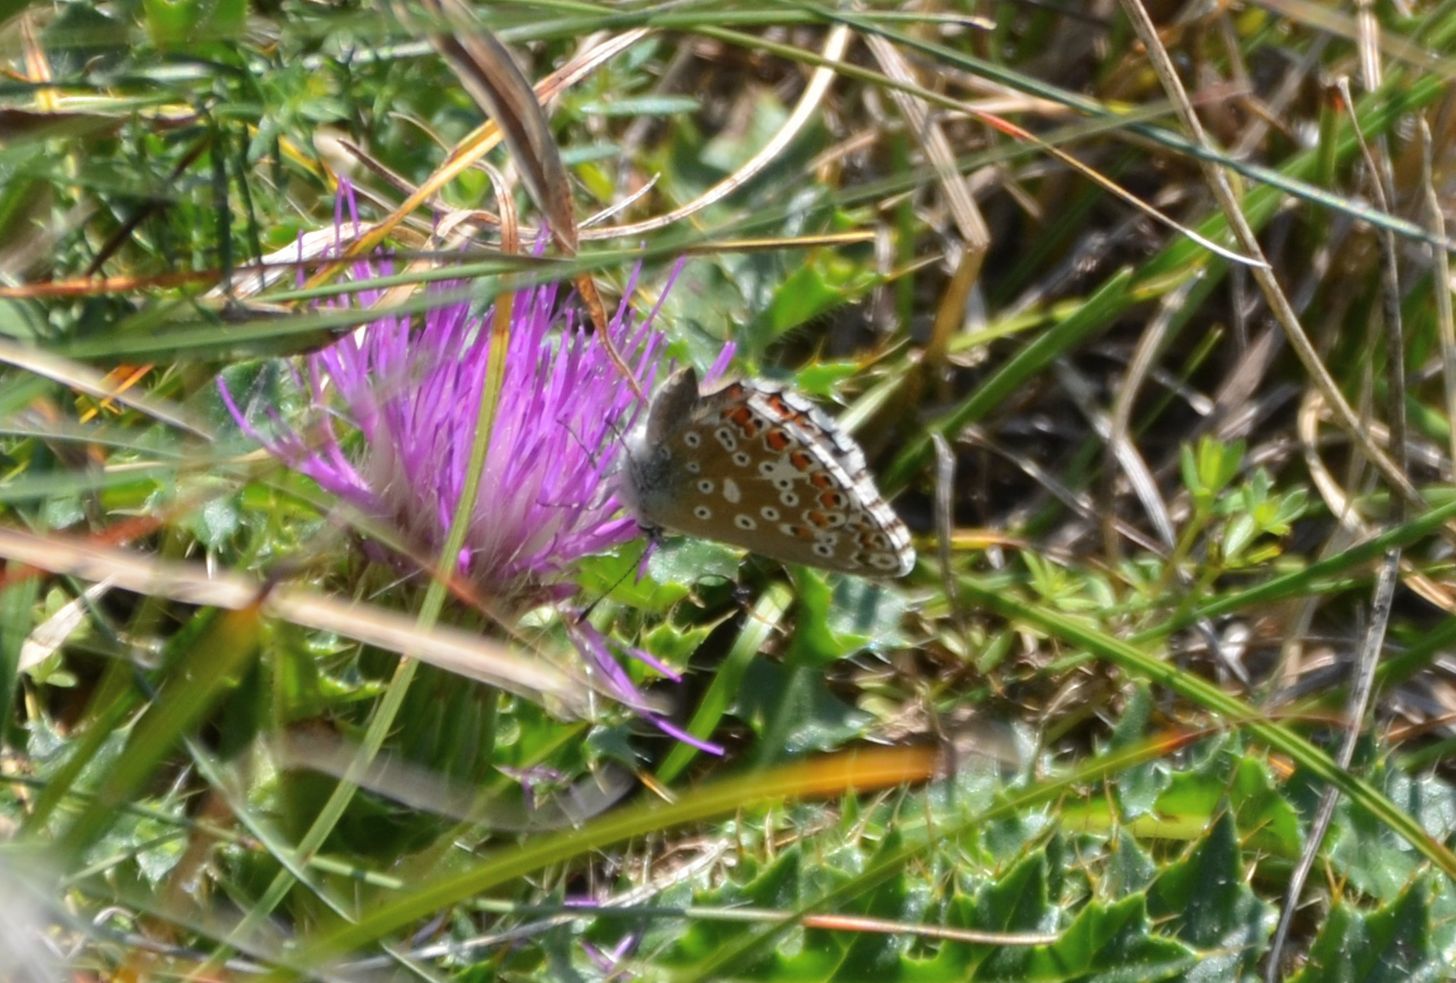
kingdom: Animalia
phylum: Arthropoda
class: Insecta
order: Lepidoptera
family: Lycaenidae
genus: Lysandra
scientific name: Lysandra bellargus
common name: Adonis blue
